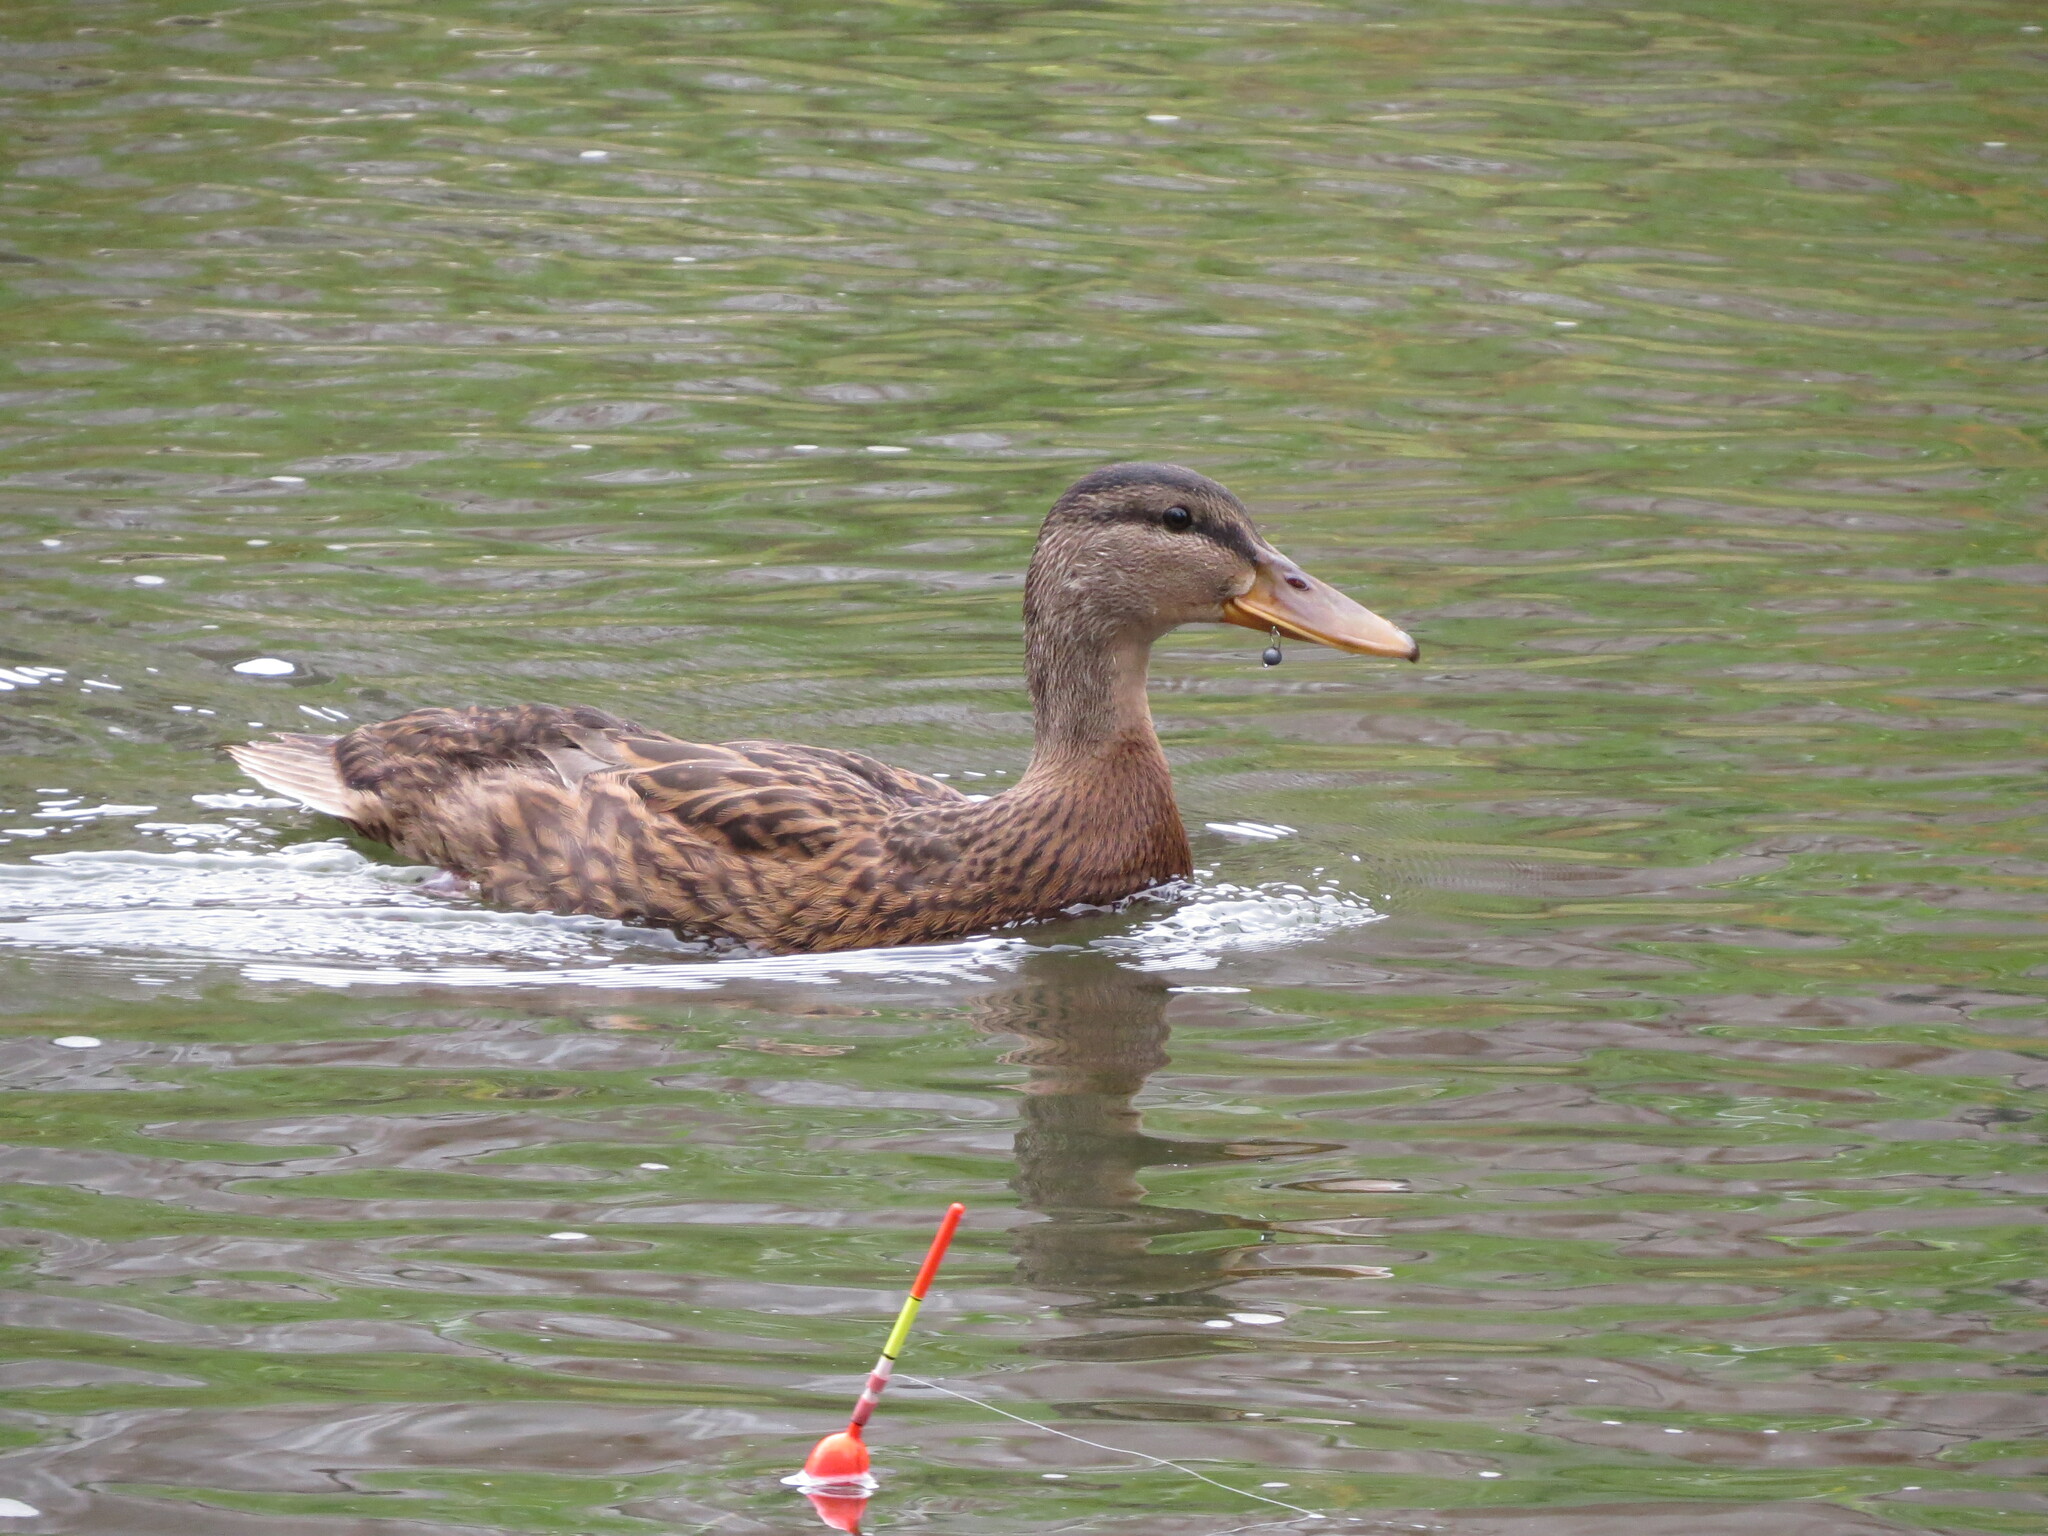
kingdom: Animalia
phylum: Chordata
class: Aves
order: Anseriformes
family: Anatidae
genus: Anas
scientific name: Anas platyrhynchos
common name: Mallard
